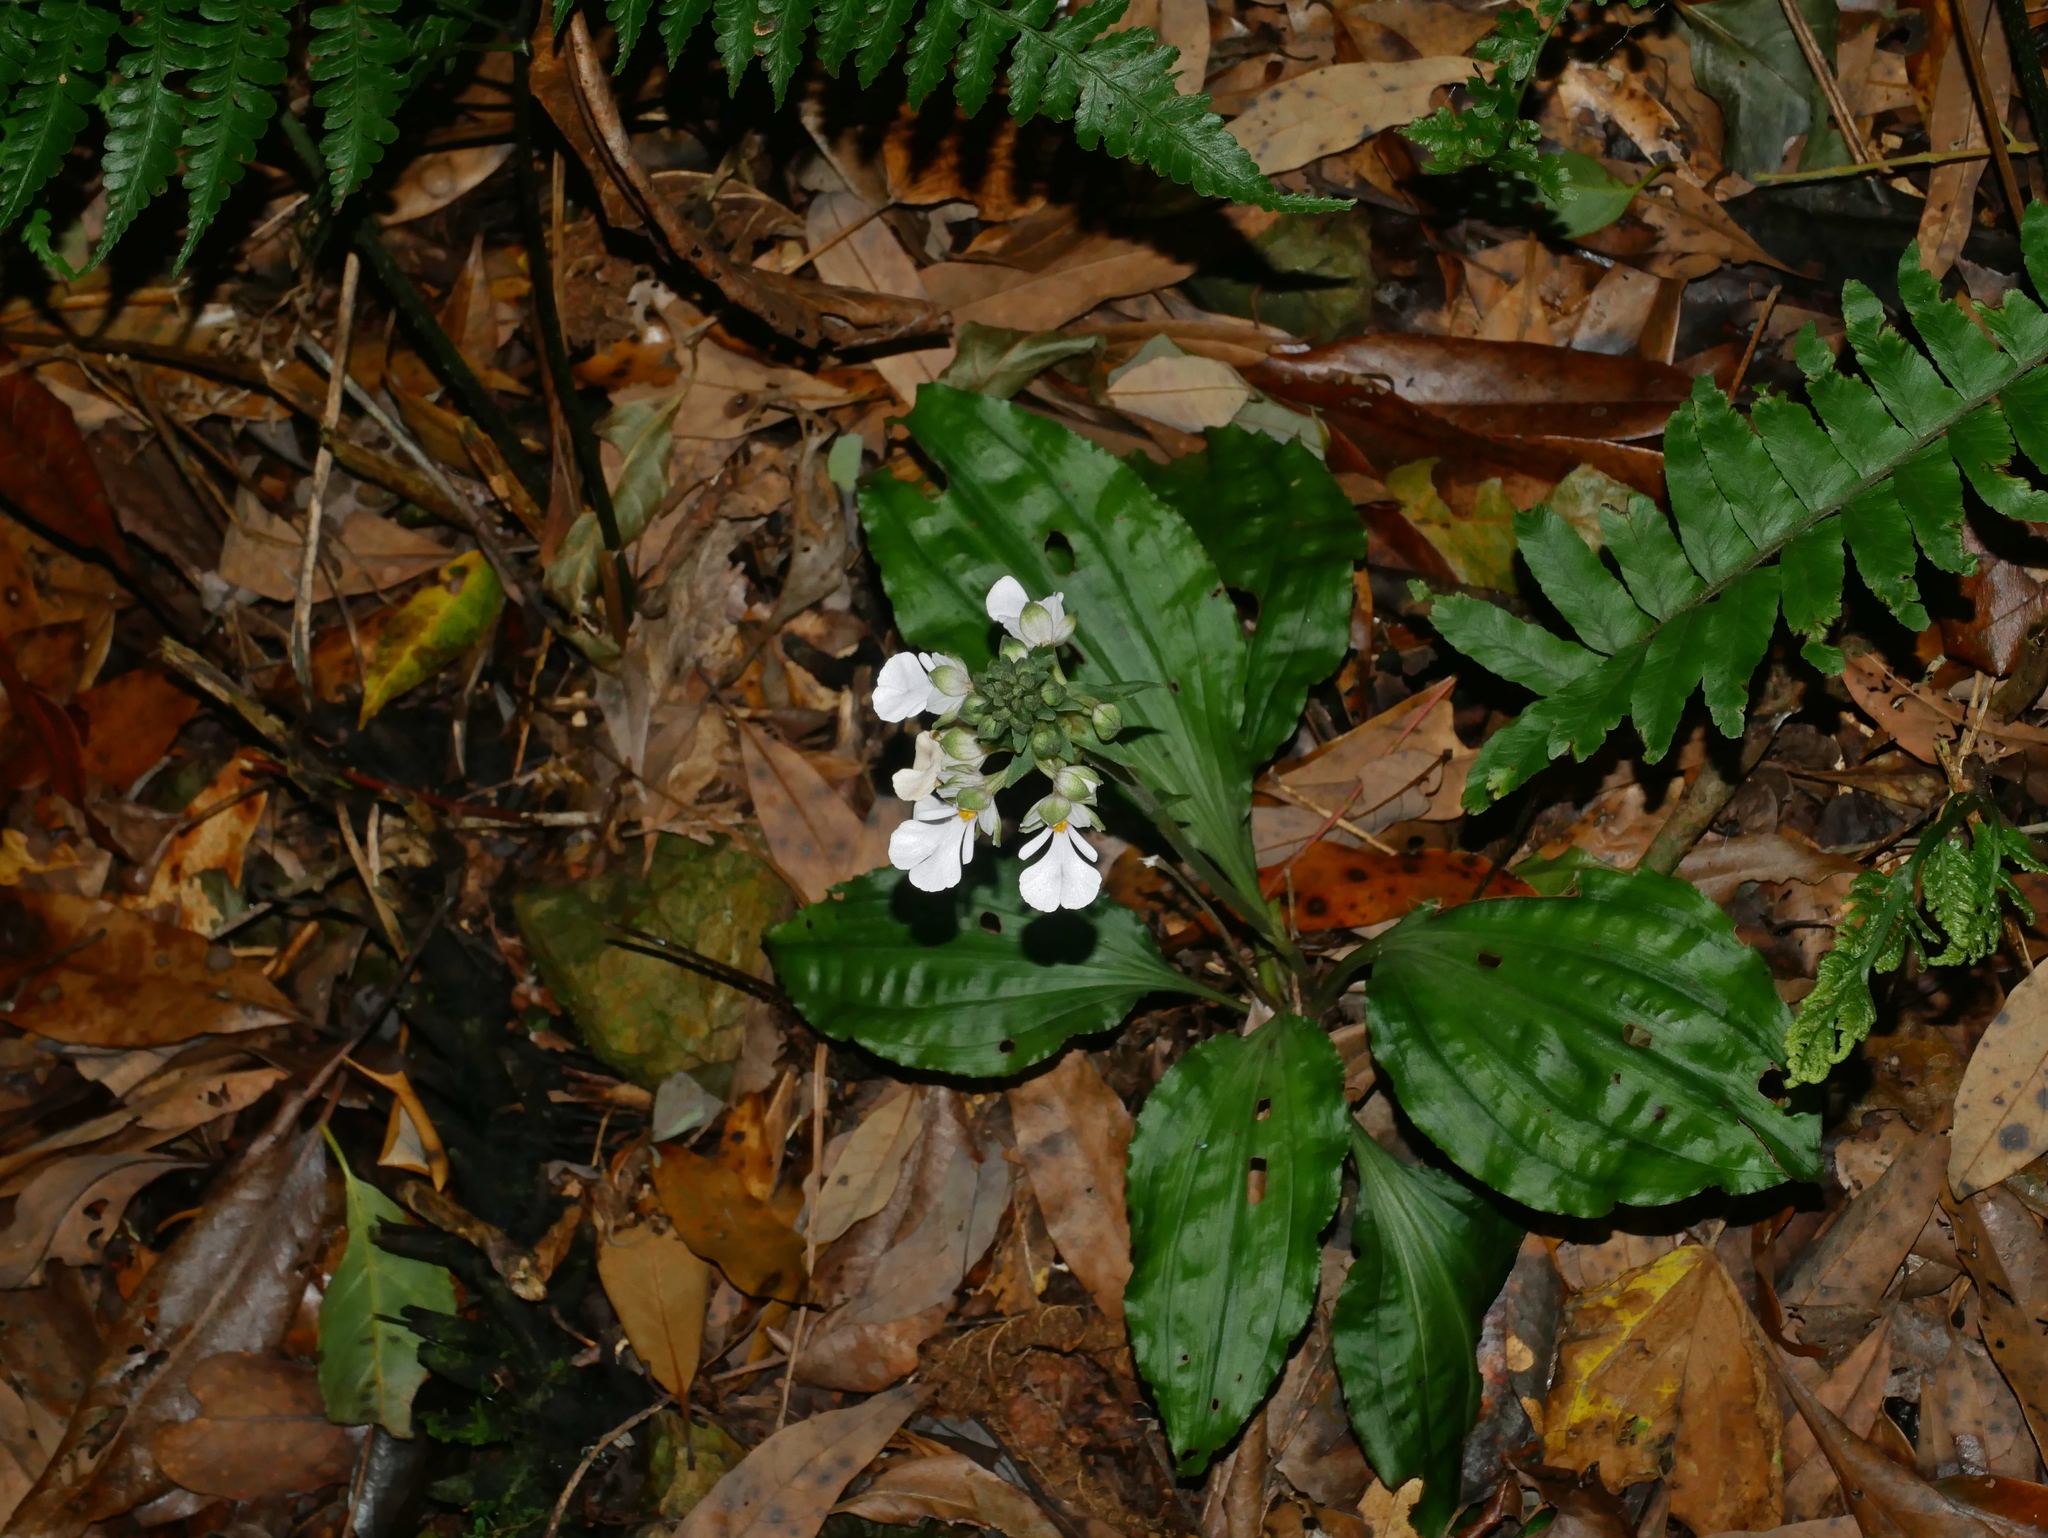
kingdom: Plantae
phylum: Tracheophyta
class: Liliopsida
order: Asparagales
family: Orchidaceae
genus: Calanthe
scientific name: Calanthe alismifolia
